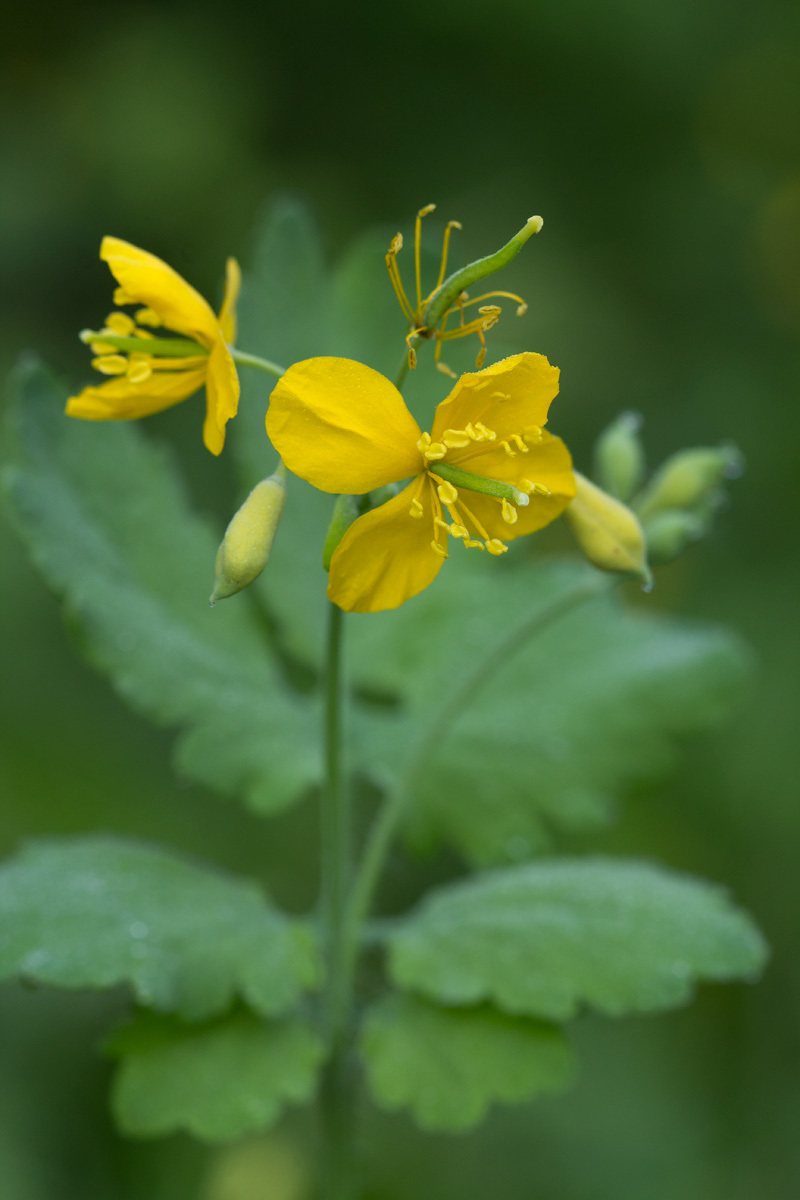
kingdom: Plantae
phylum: Tracheophyta
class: Magnoliopsida
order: Ranunculales
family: Papaveraceae
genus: Chelidonium
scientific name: Chelidonium majus
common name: Greater celandine
